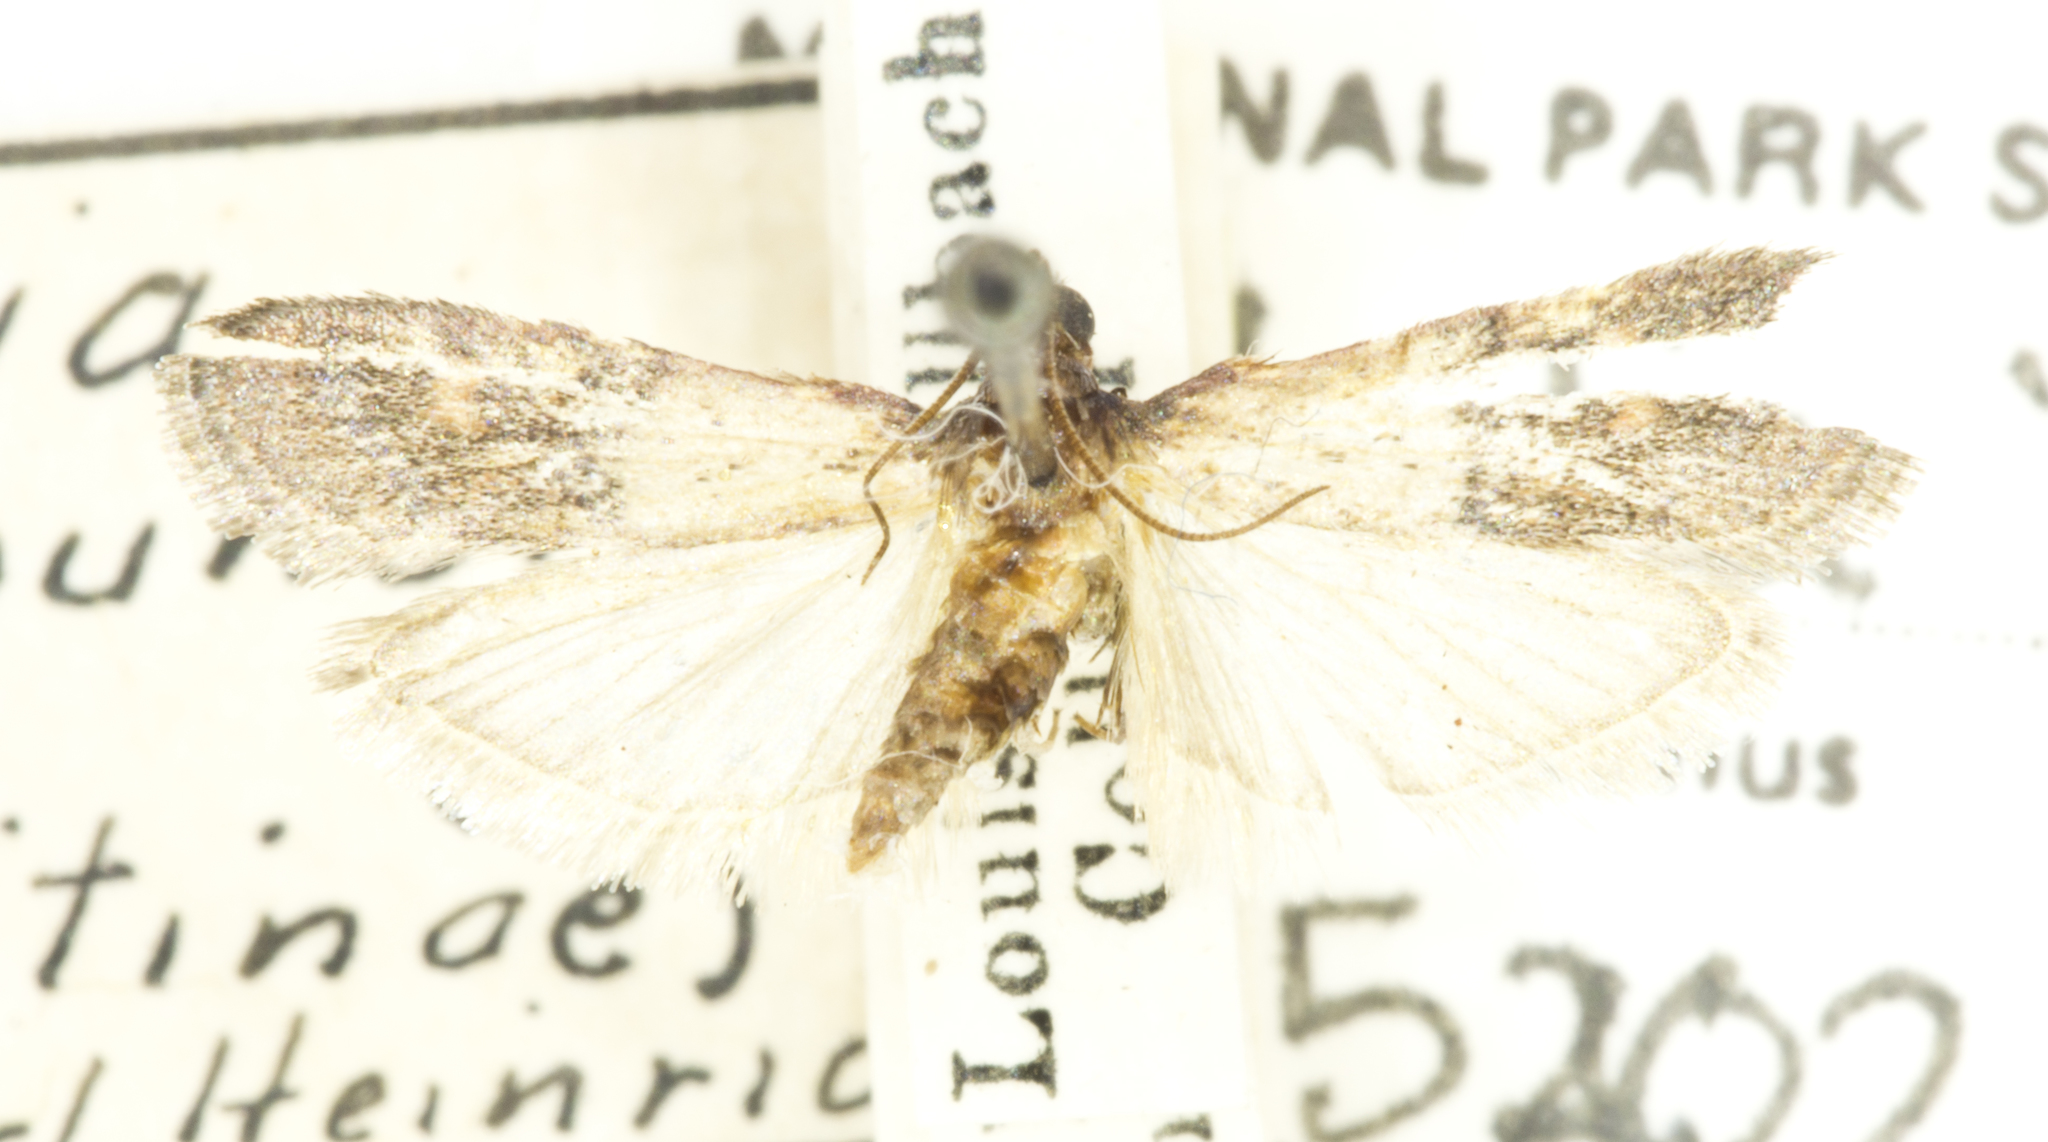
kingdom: Animalia
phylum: Arthropoda
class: Insecta
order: Lepidoptera
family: Pyralidae
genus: Plodia
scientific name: Plodia interpunctella
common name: Indian meal moth
